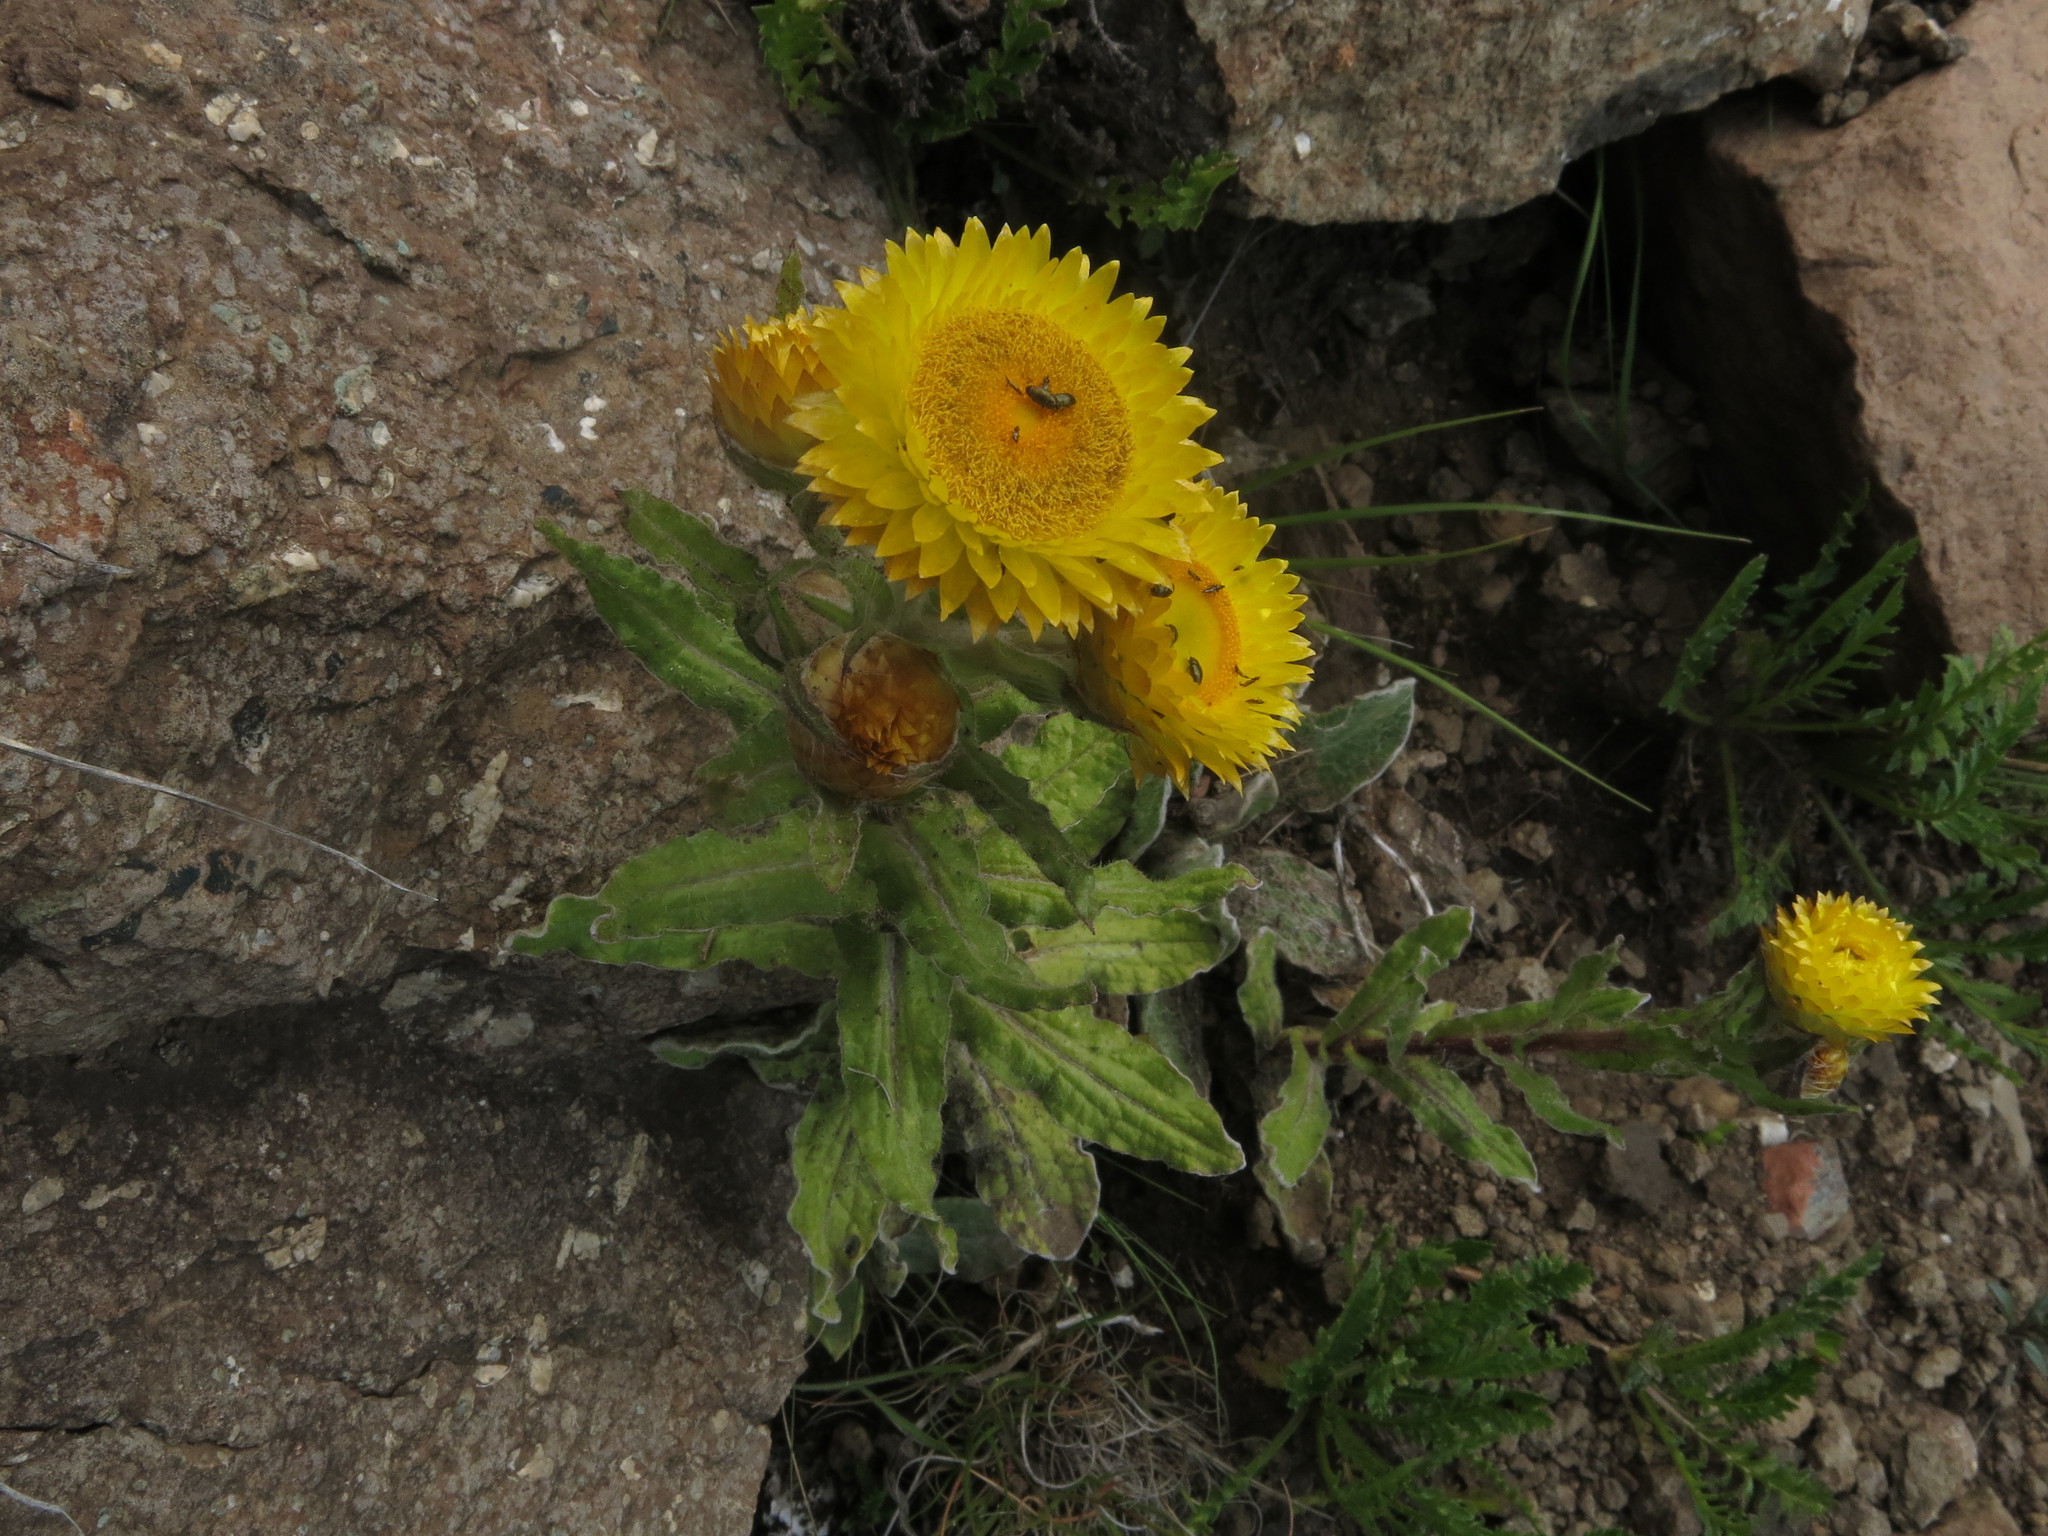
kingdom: Plantae
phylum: Tracheophyta
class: Magnoliopsida
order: Asterales
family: Asteraceae
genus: Helichrysum
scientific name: Helichrysum tenax
